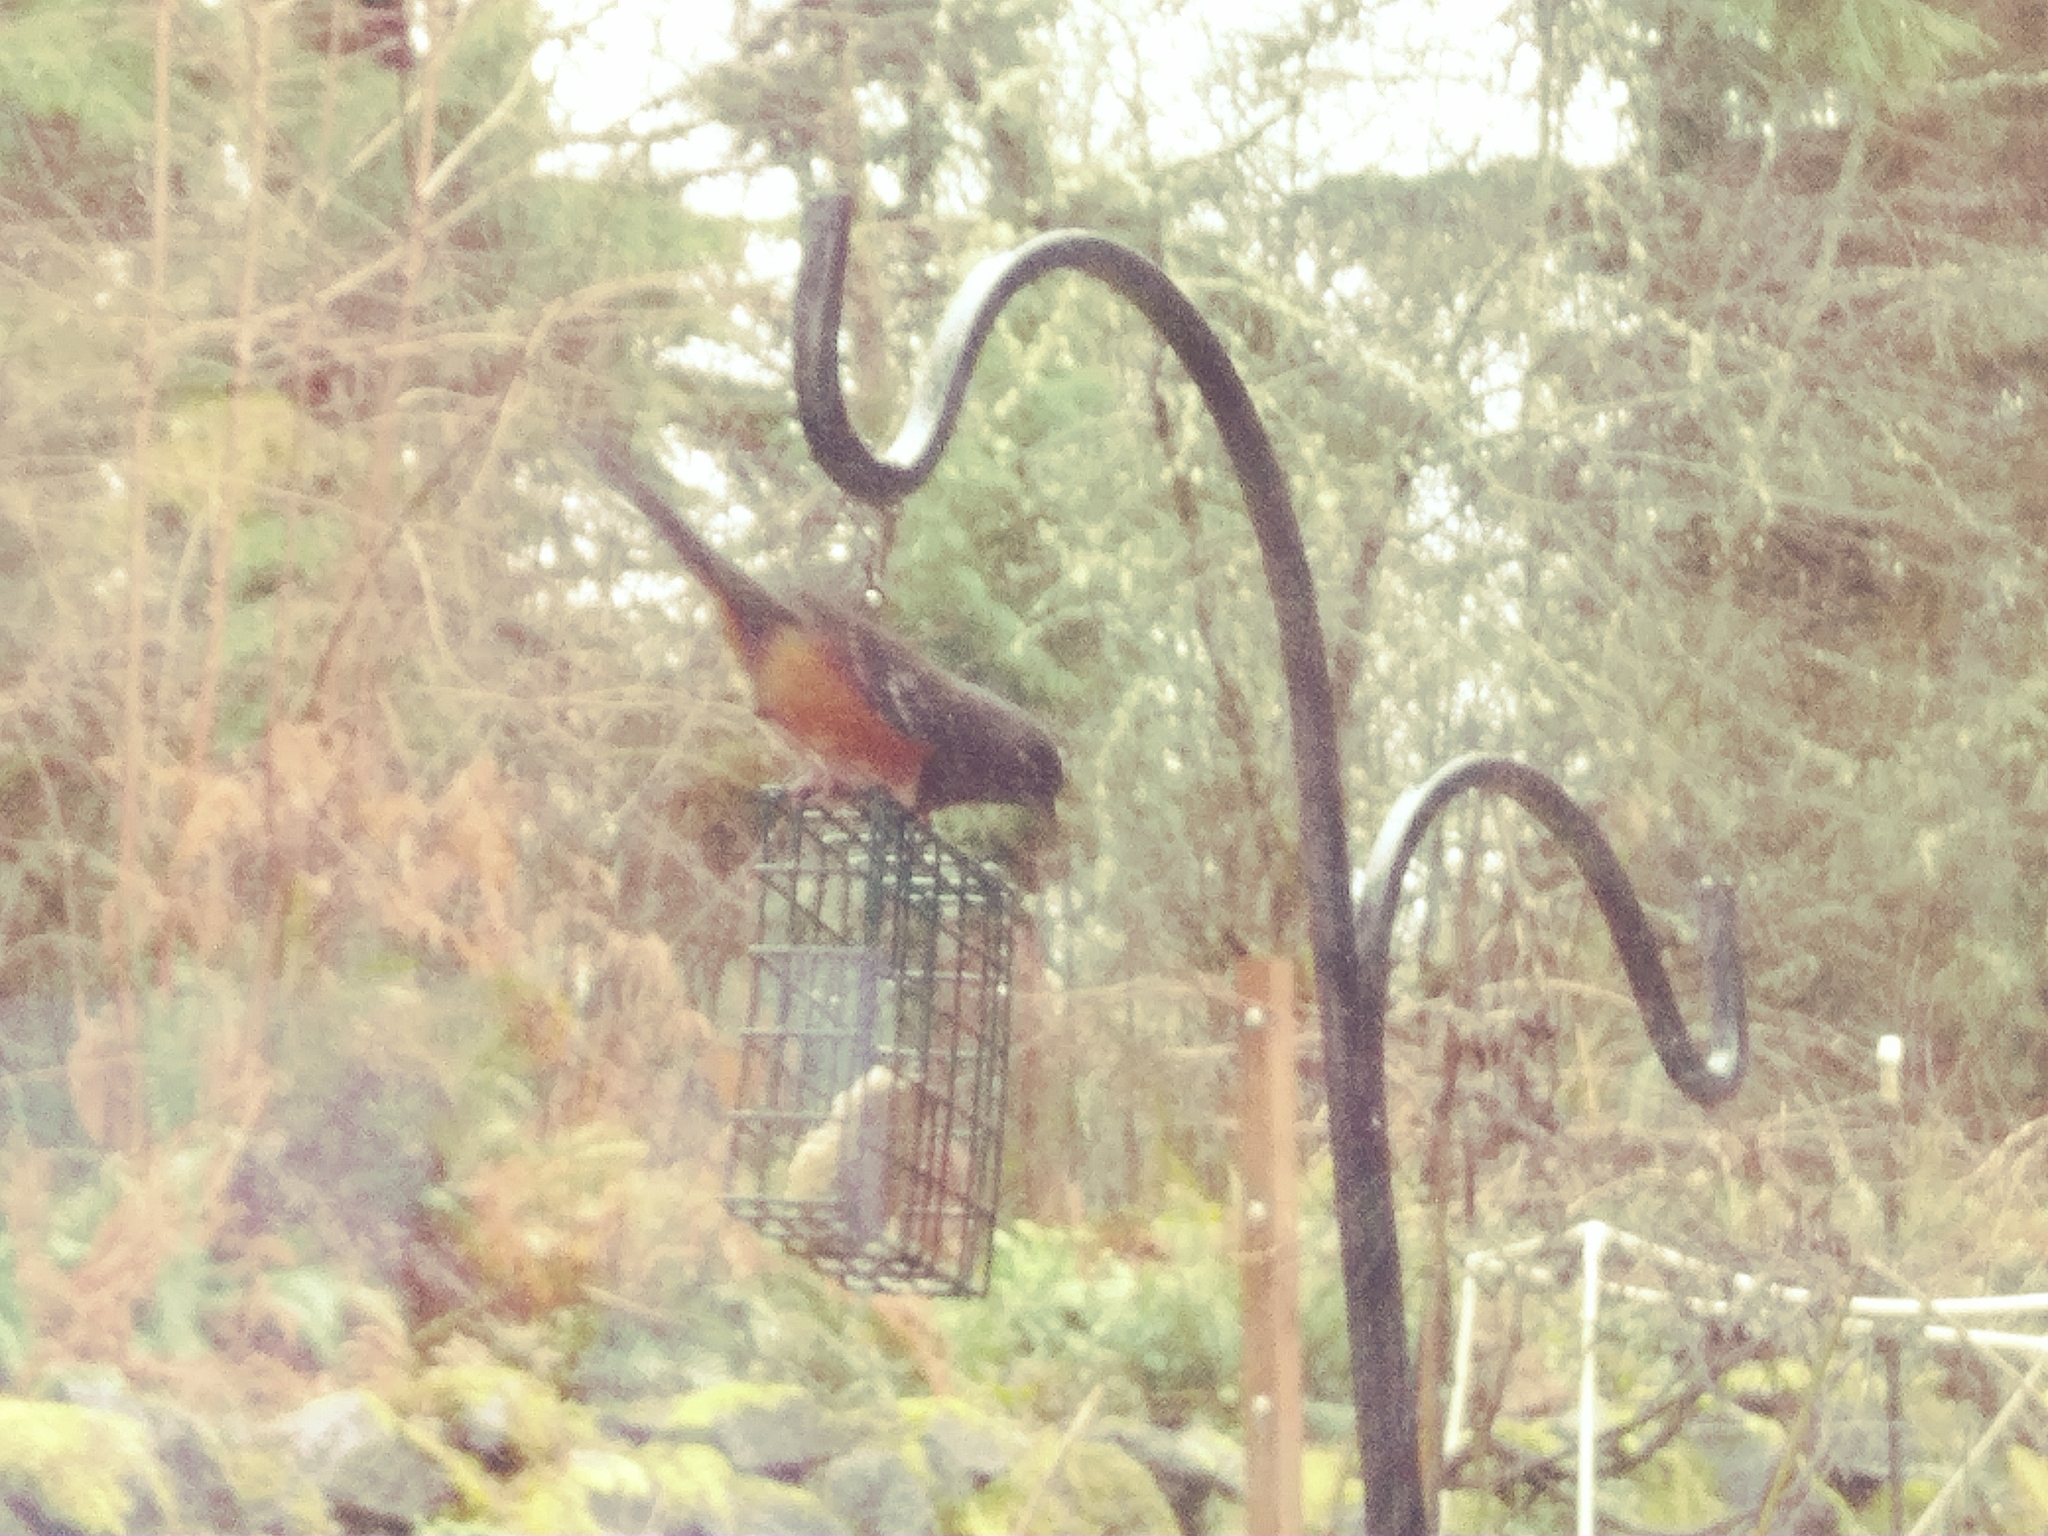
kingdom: Animalia
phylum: Chordata
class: Aves
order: Passeriformes
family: Passerellidae
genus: Pipilo
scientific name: Pipilo maculatus
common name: Spotted towhee
